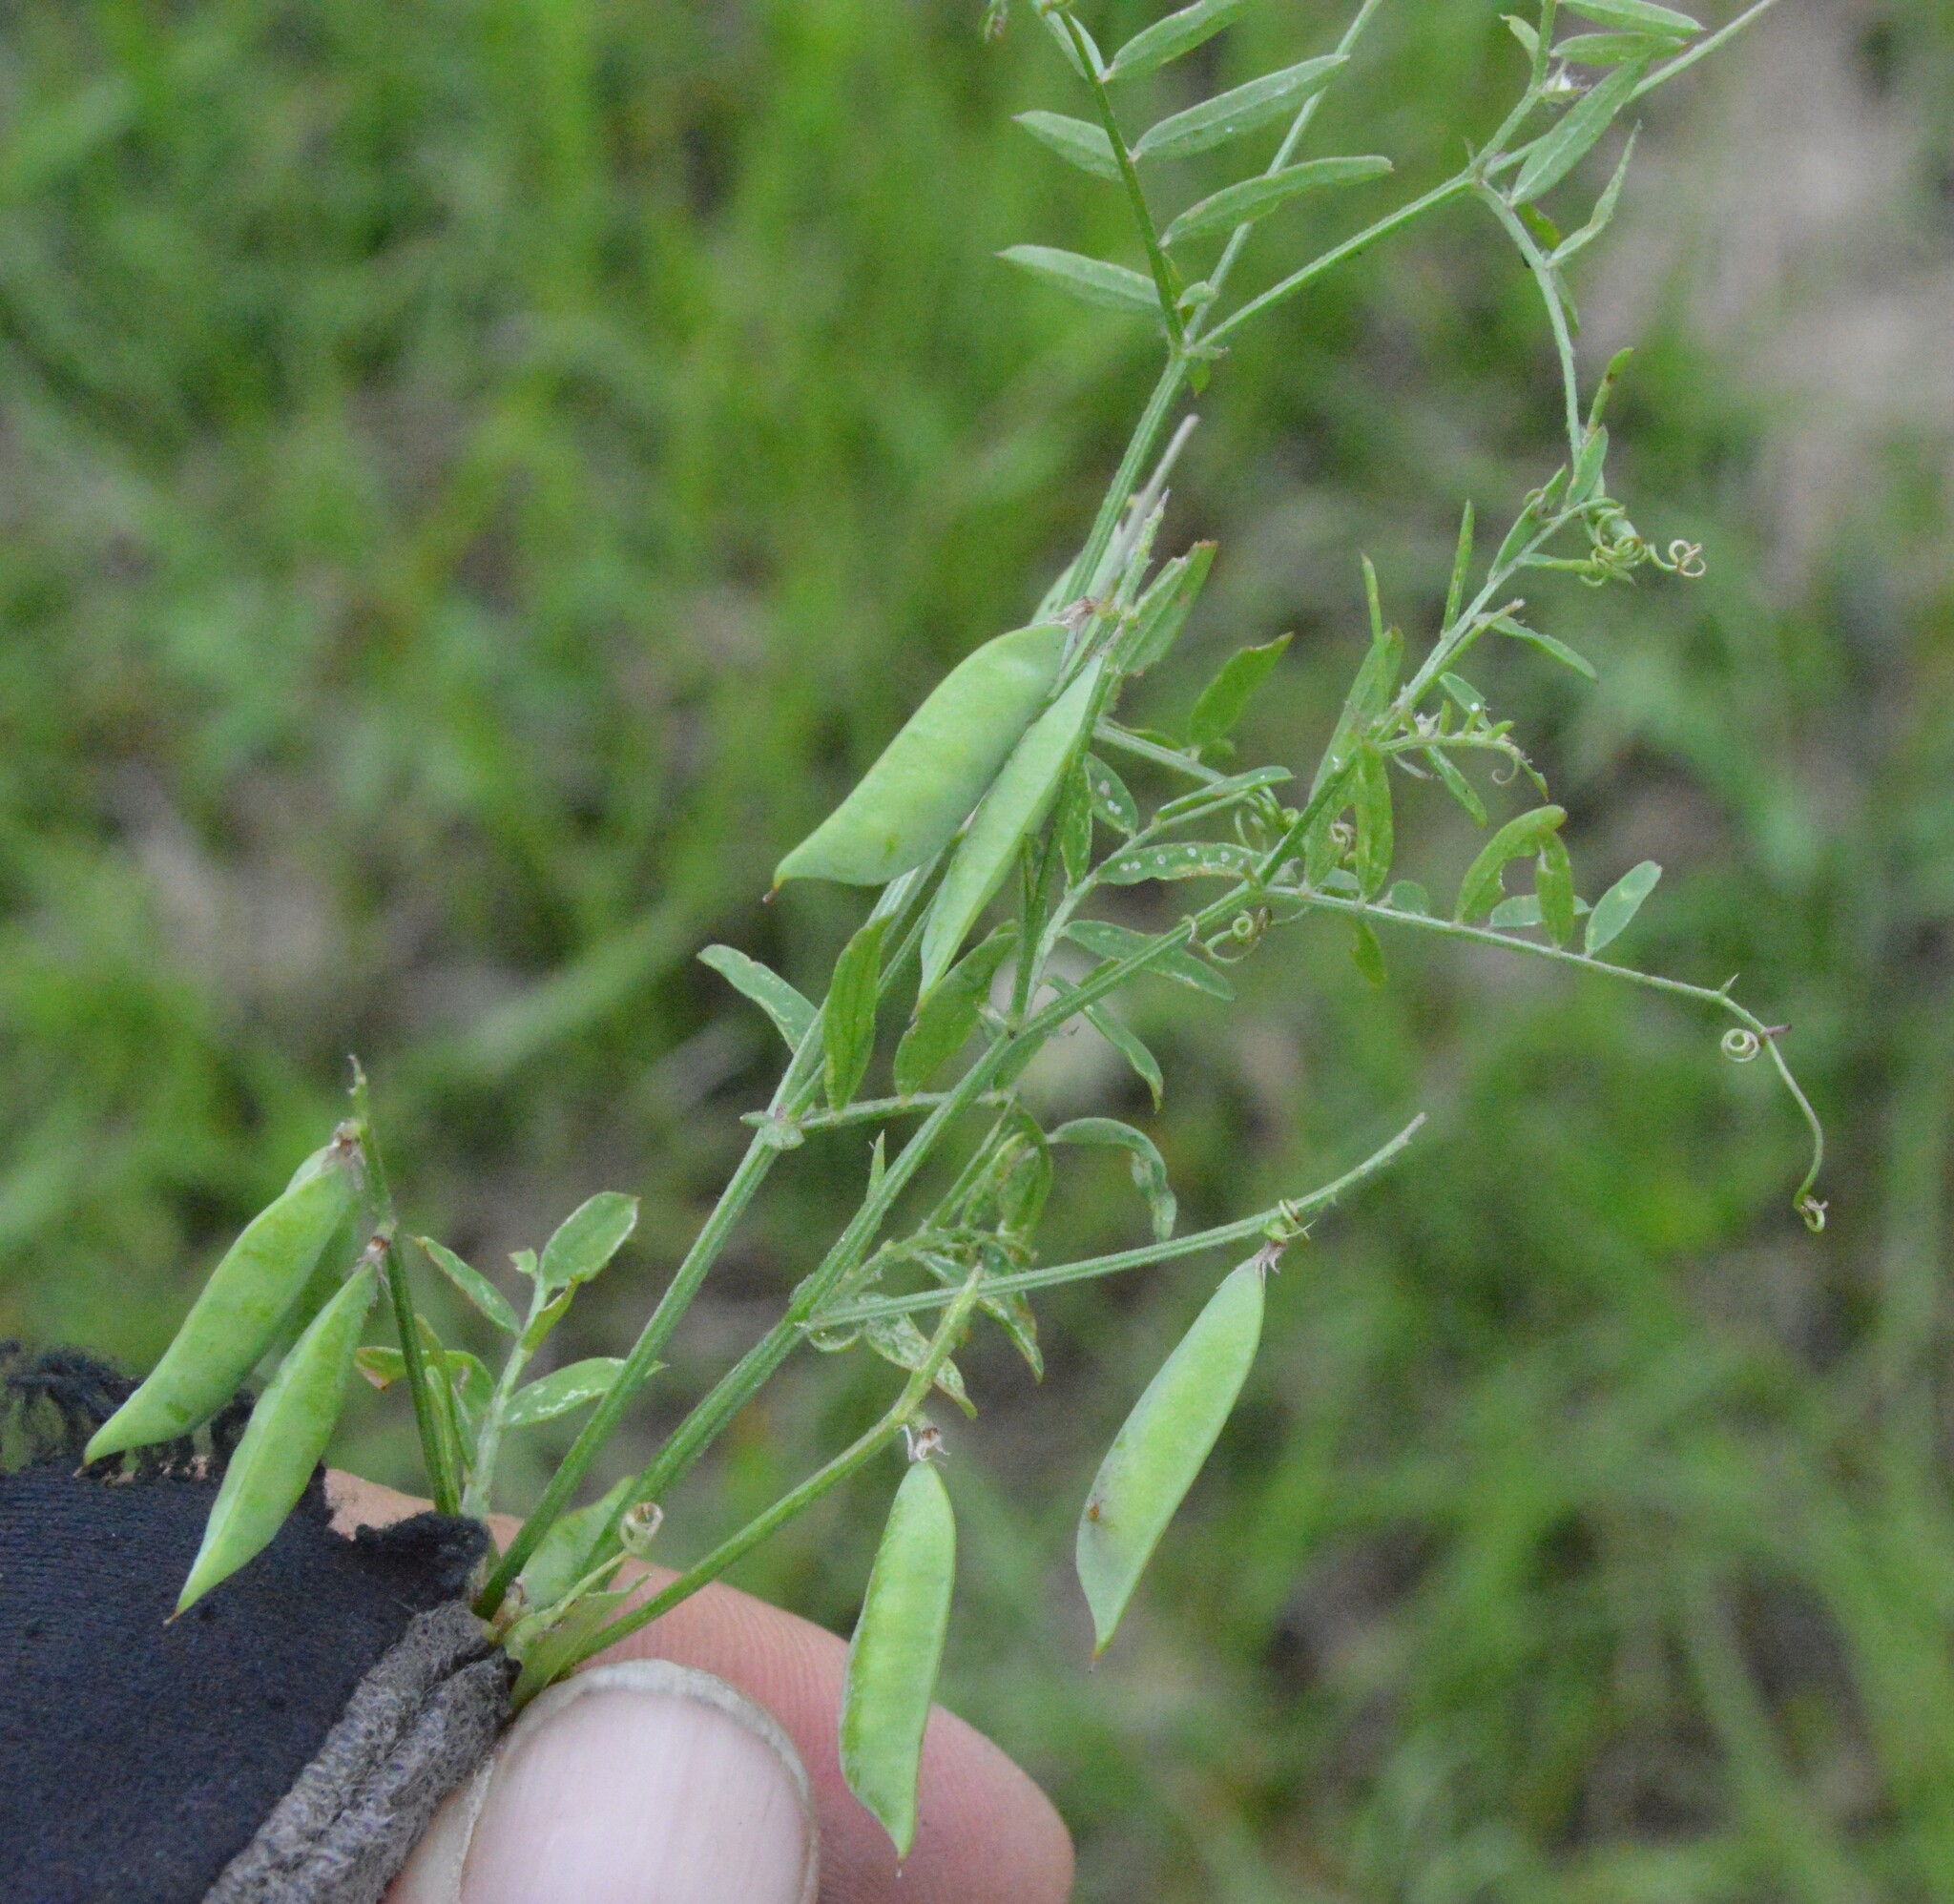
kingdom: Plantae
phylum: Tracheophyta
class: Magnoliopsida
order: Fabales
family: Fabaceae
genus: Vicia
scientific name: Vicia ludoviciana
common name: Louisiana vetch
